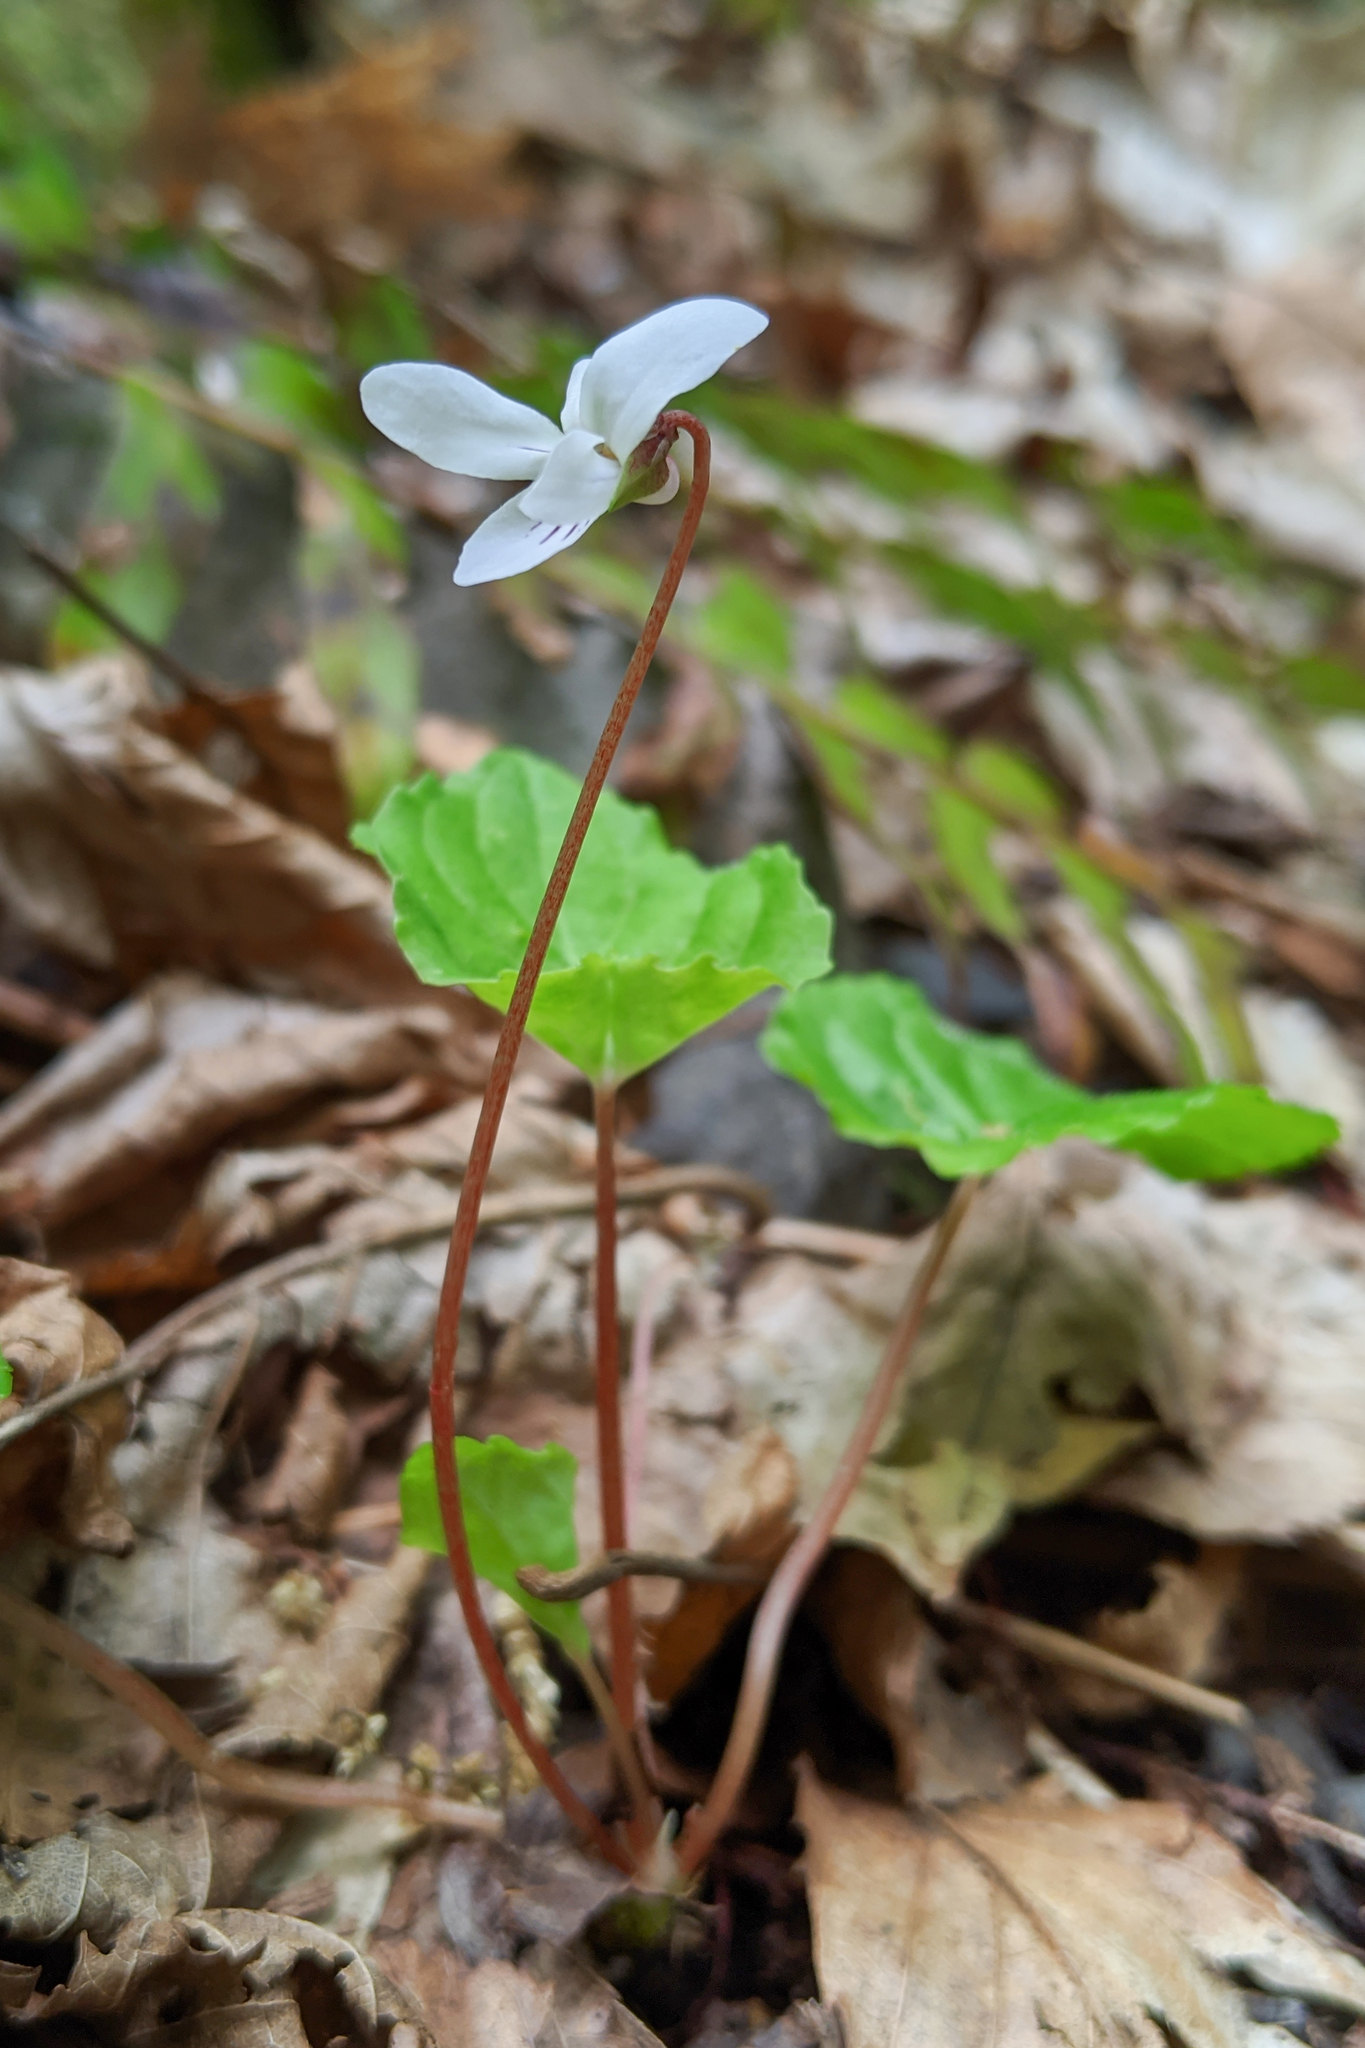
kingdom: Plantae
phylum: Tracheophyta
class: Magnoliopsida
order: Malpighiales
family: Violaceae
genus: Viola
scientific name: Viola blanda
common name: Sweet white violet
